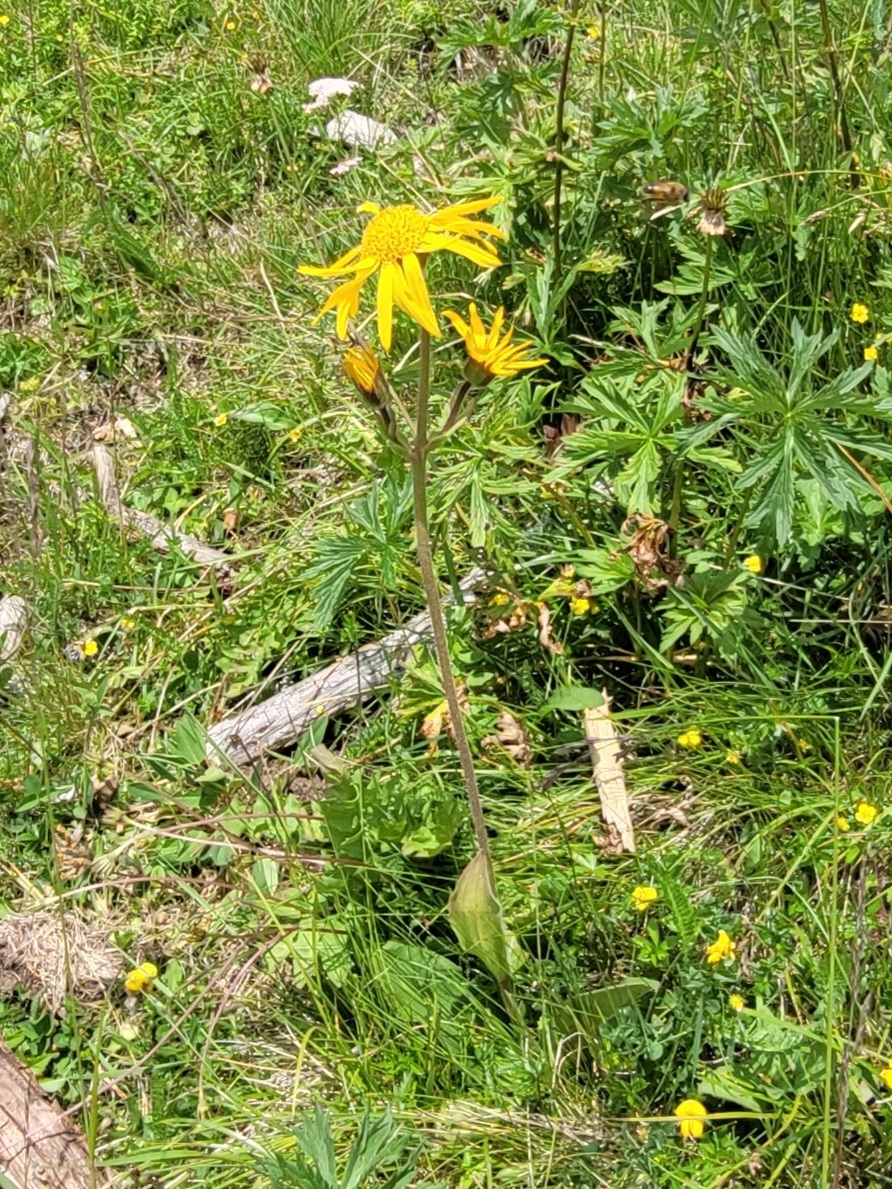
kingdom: Plantae
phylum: Tracheophyta
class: Magnoliopsida
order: Asterales
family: Asteraceae
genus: Arnica
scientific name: Arnica montana
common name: Leopard's bane
